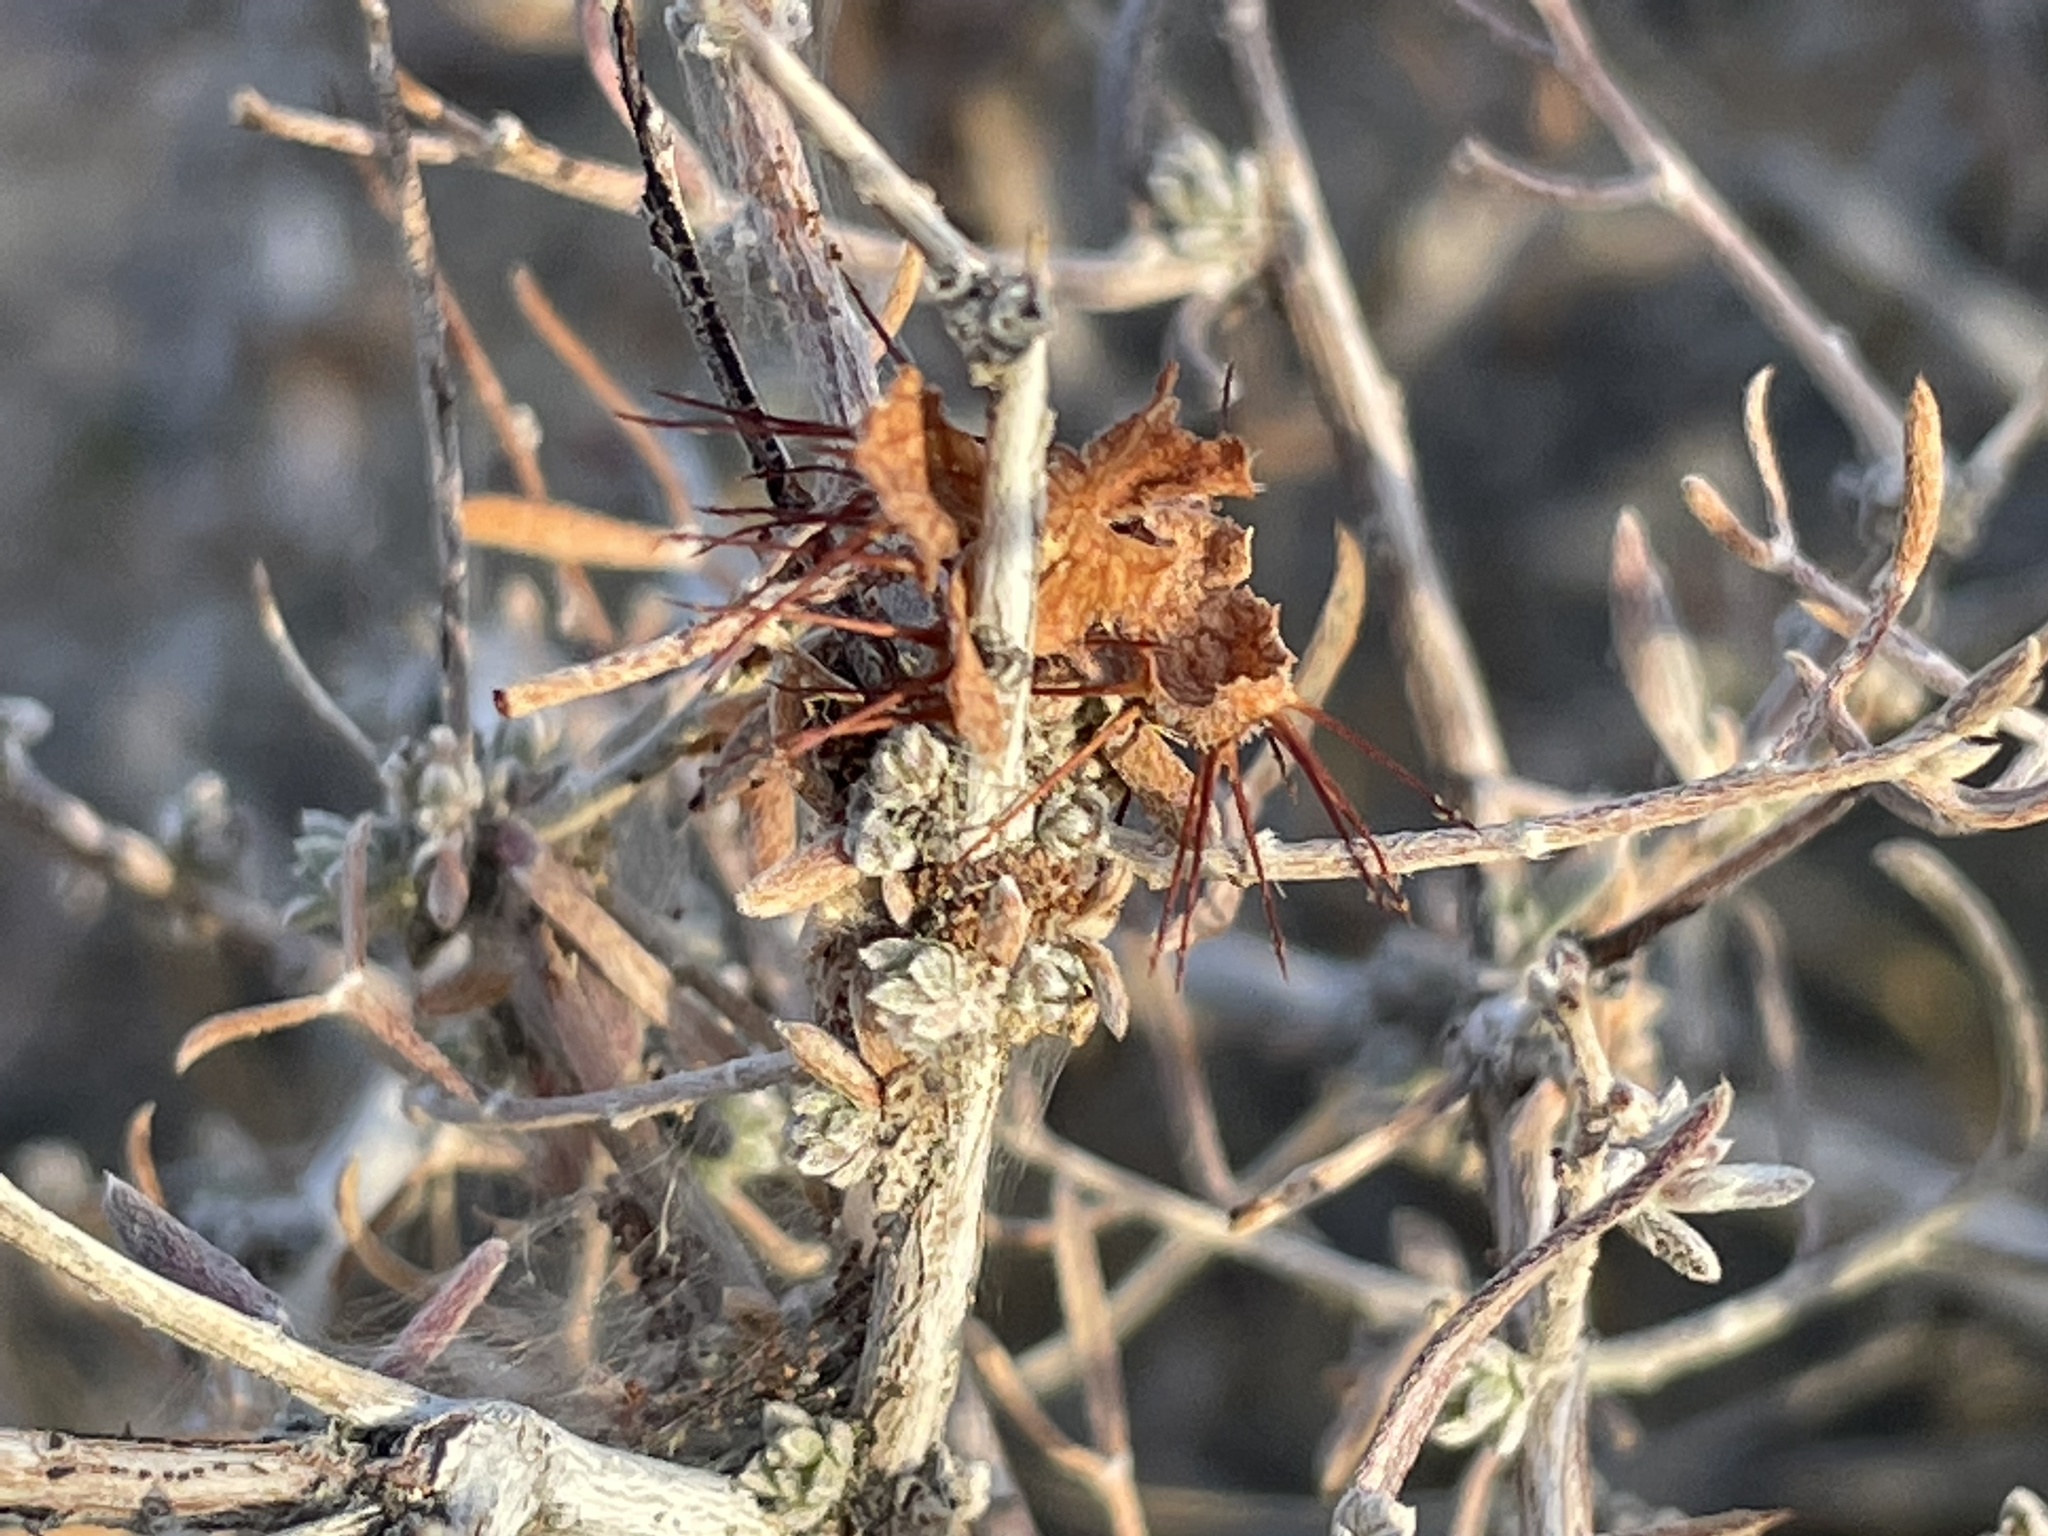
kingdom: Plantae
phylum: Tracheophyta
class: Magnoliopsida
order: Zygophyllales
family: Krameriaceae
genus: Krameria
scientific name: Krameria erecta
